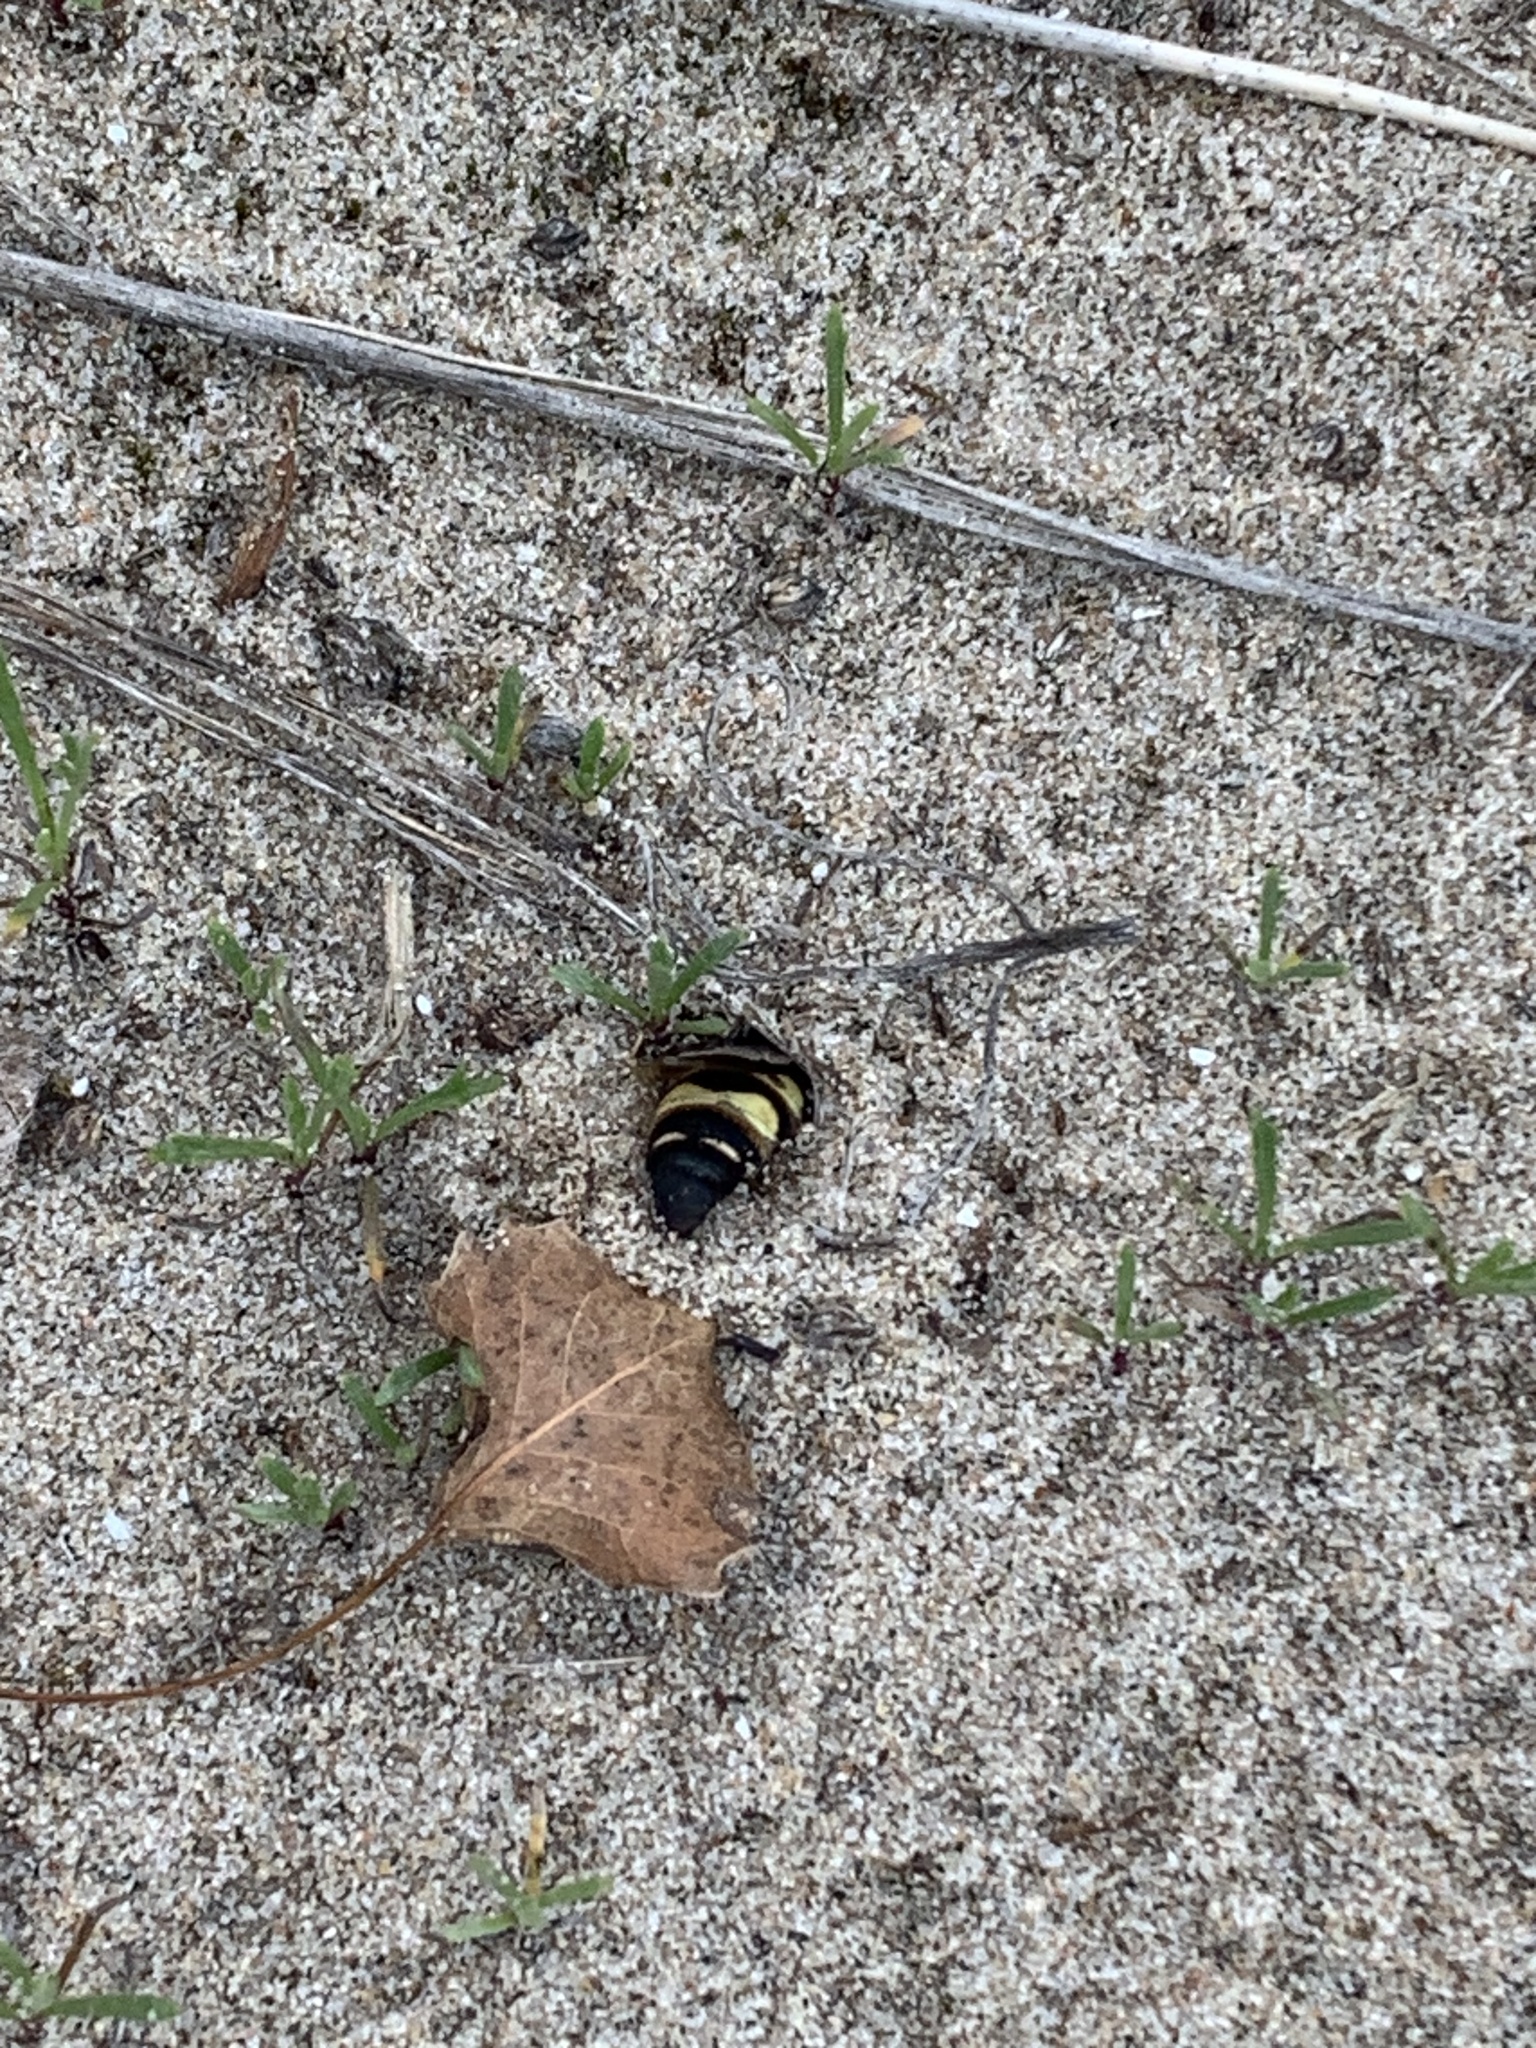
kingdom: Animalia
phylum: Arthropoda
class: Insecta
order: Hymenoptera
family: Scoliidae
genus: Dielis
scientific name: Dielis
